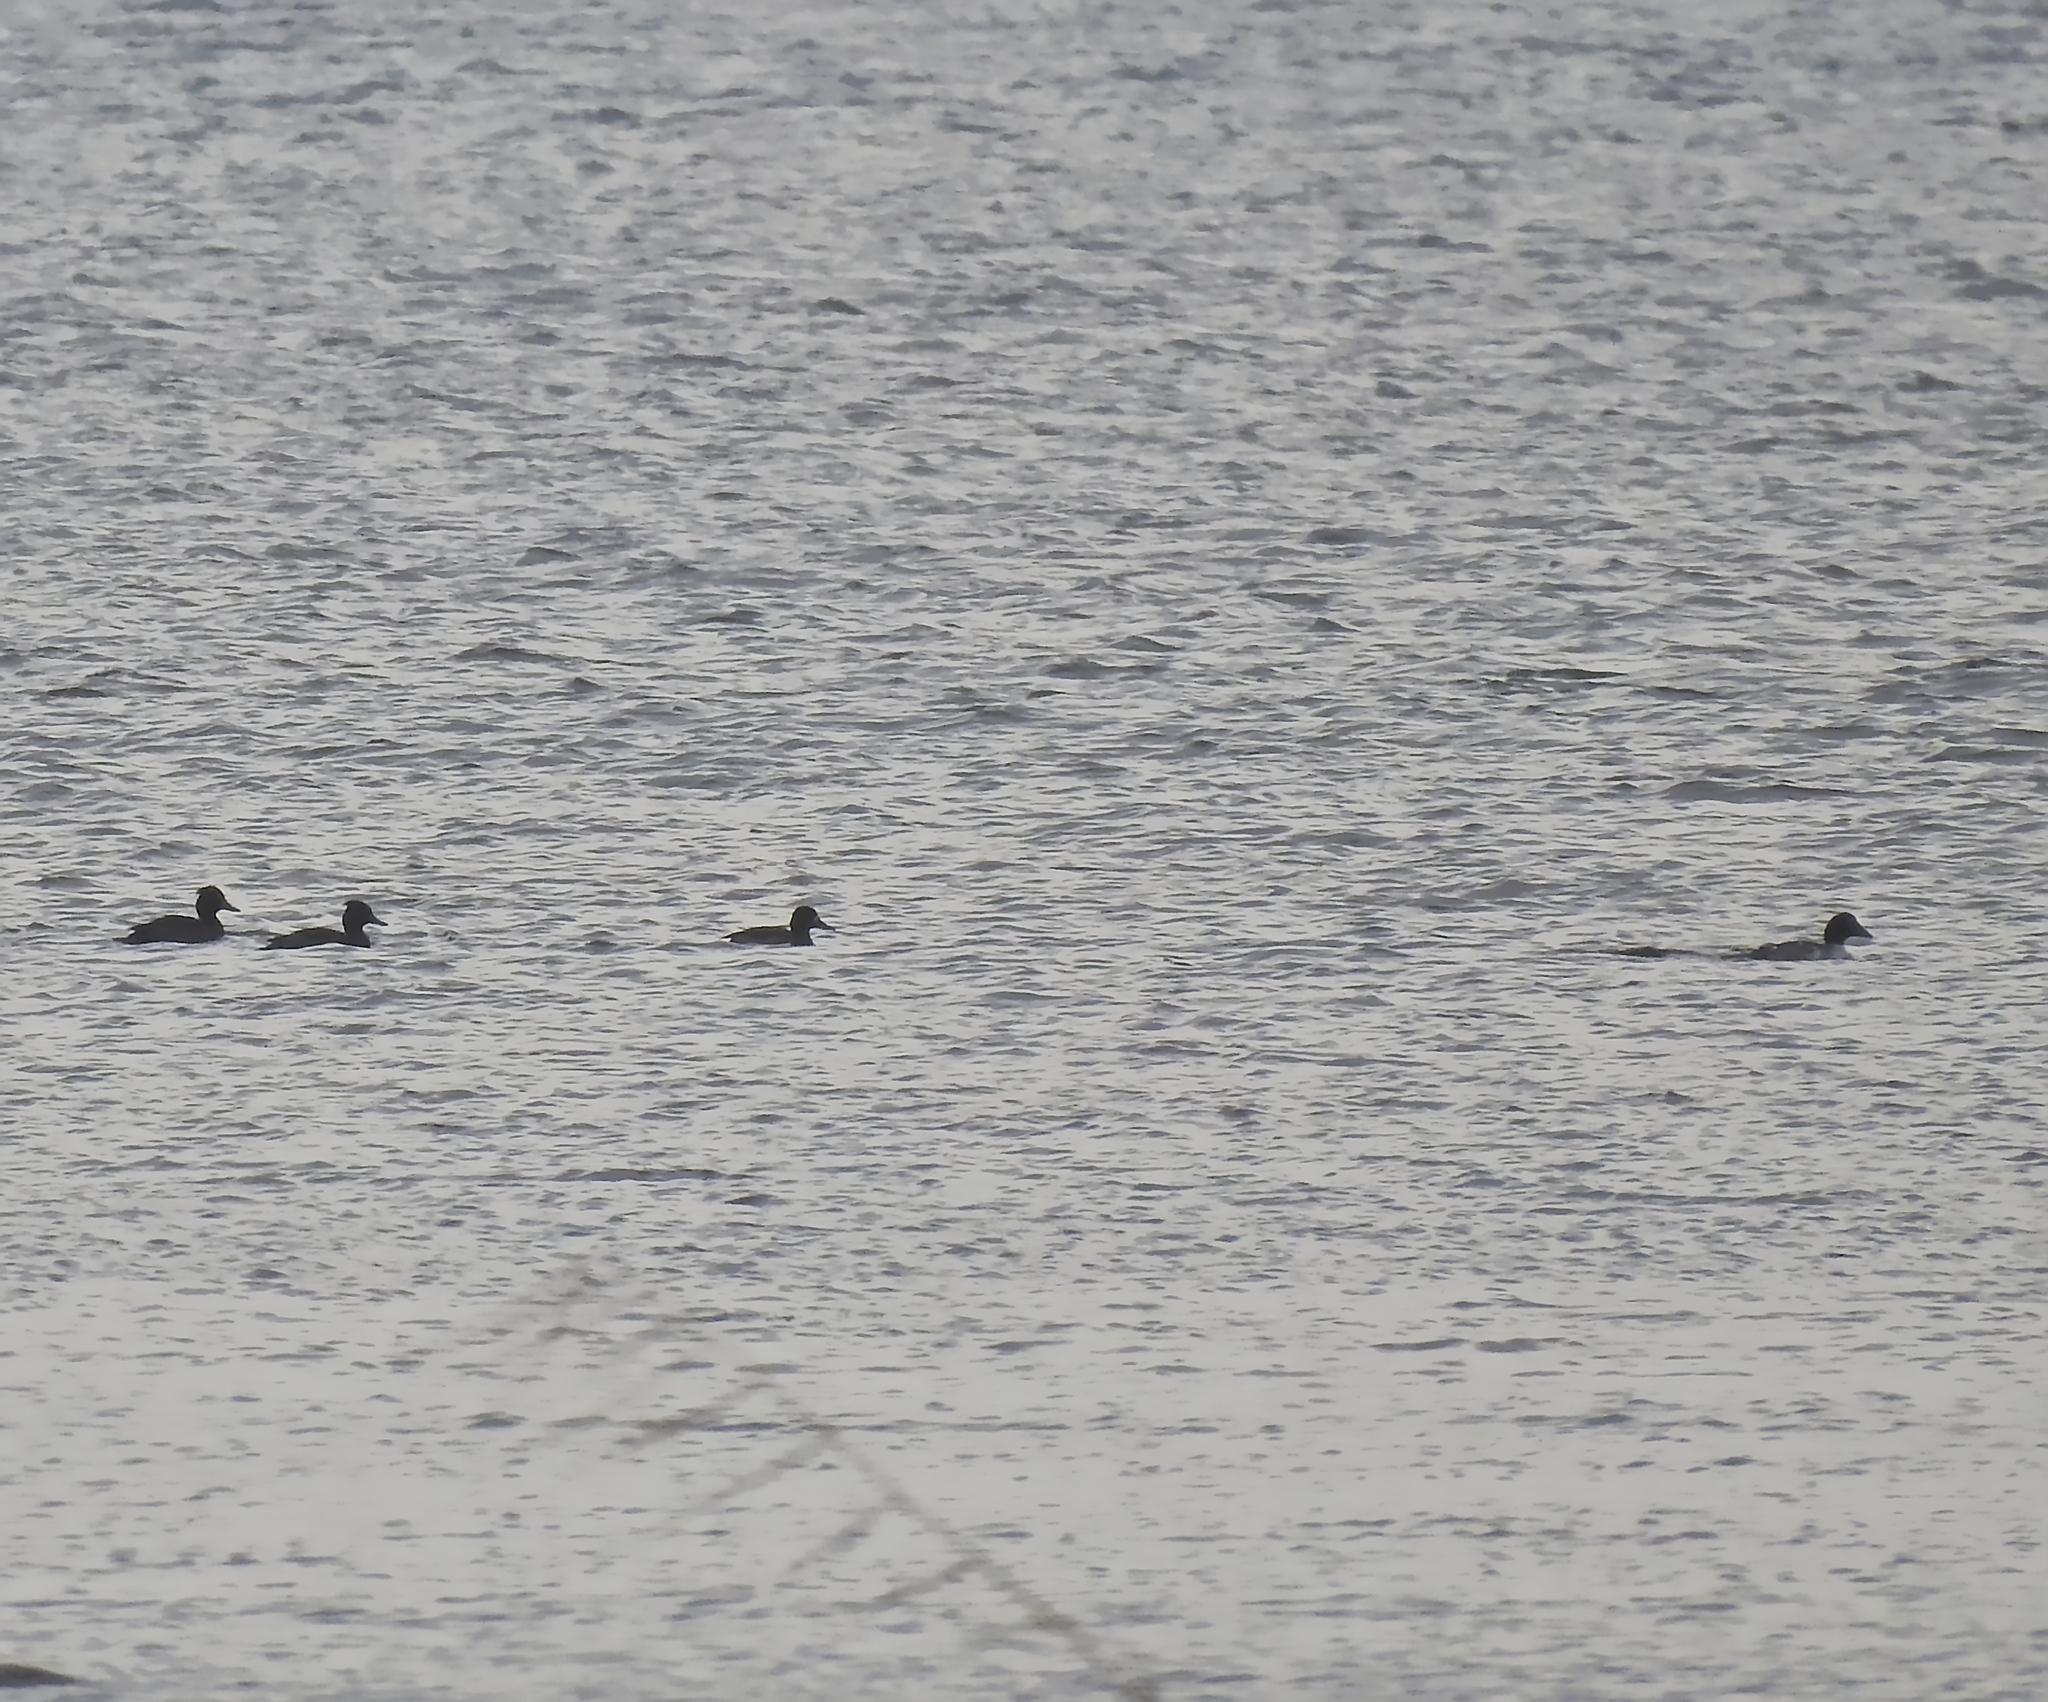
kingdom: Animalia
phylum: Chordata
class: Aves
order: Anseriformes
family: Anatidae
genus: Aythya
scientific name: Aythya fuligula
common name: Tufted duck
